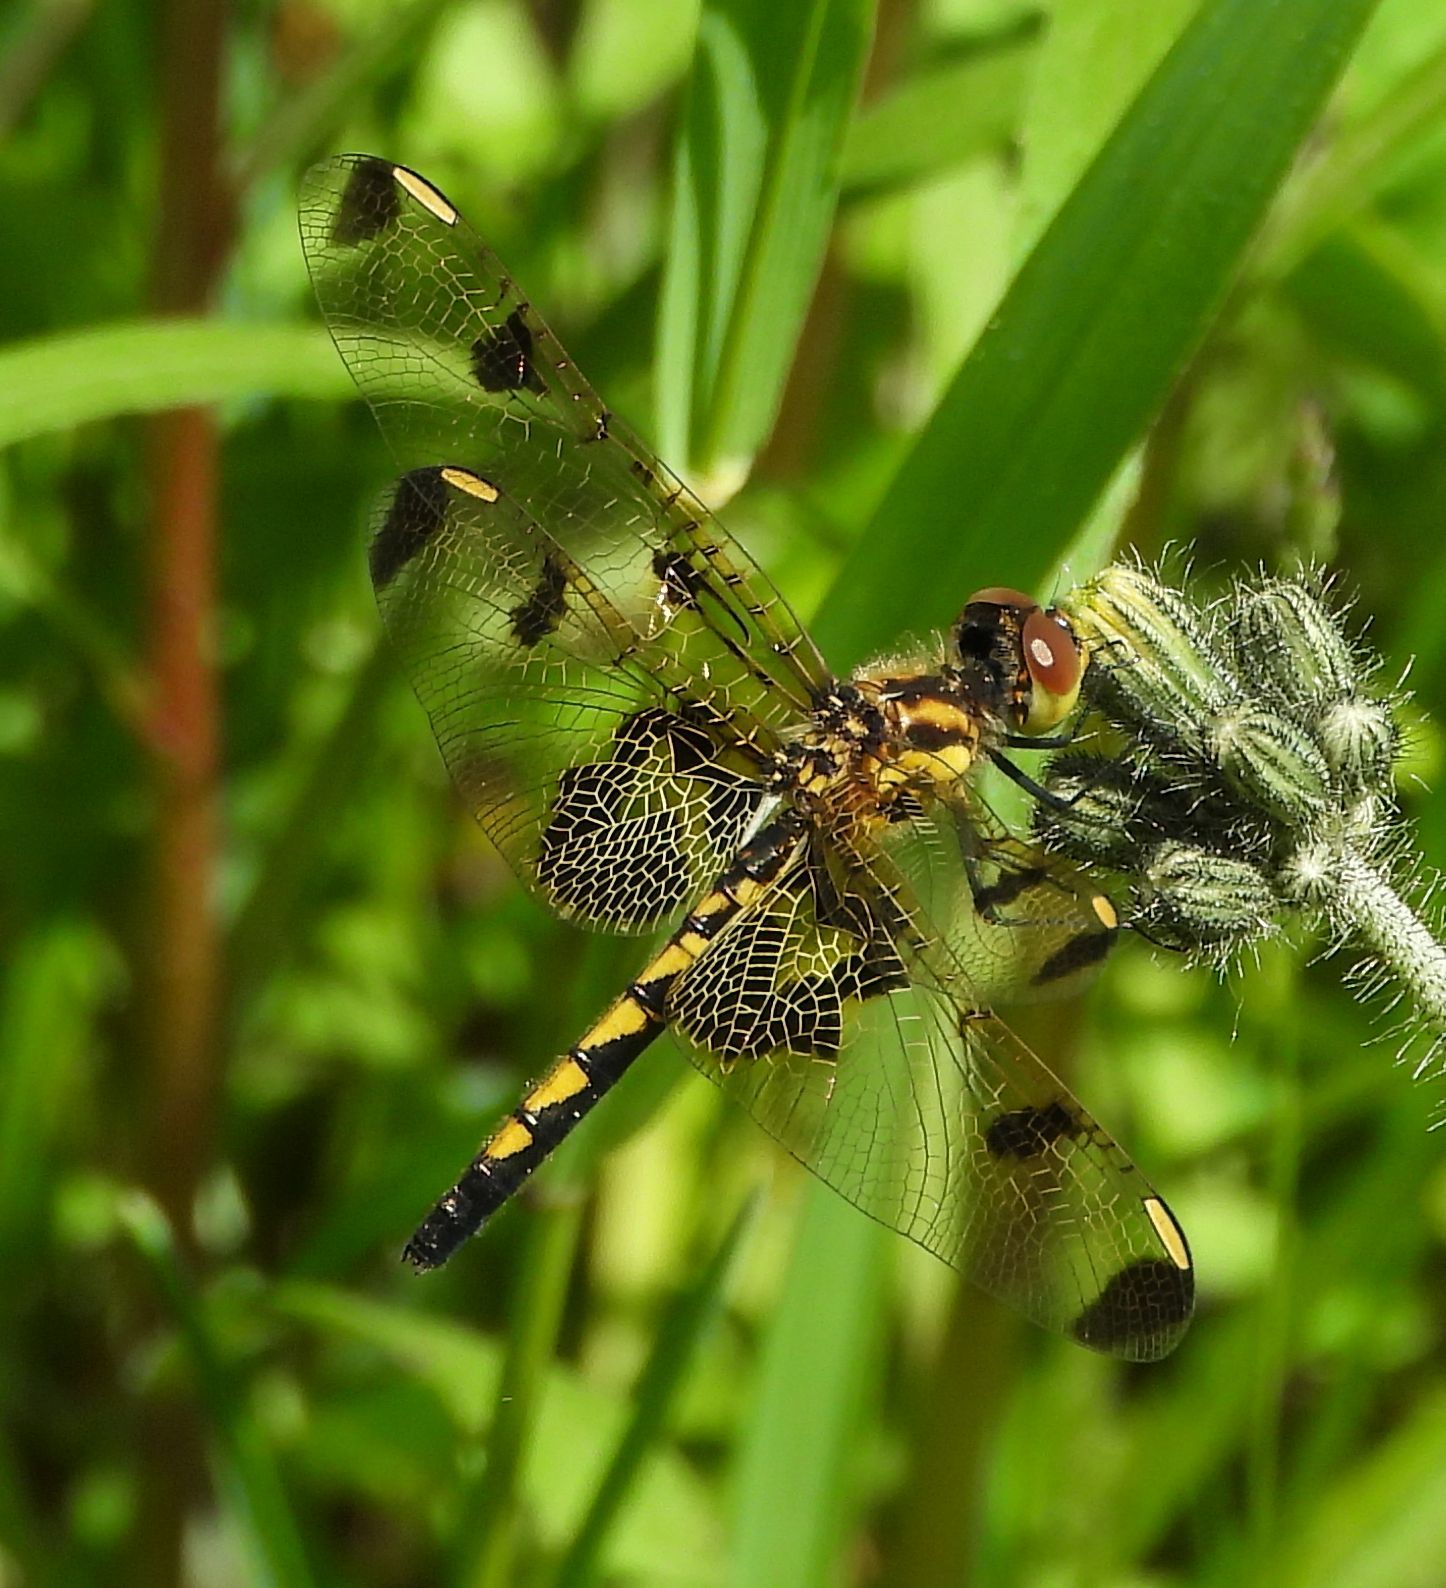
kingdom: Animalia
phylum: Arthropoda
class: Insecta
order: Odonata
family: Libellulidae
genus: Celithemis
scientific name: Celithemis elisa
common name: Calico pennant
